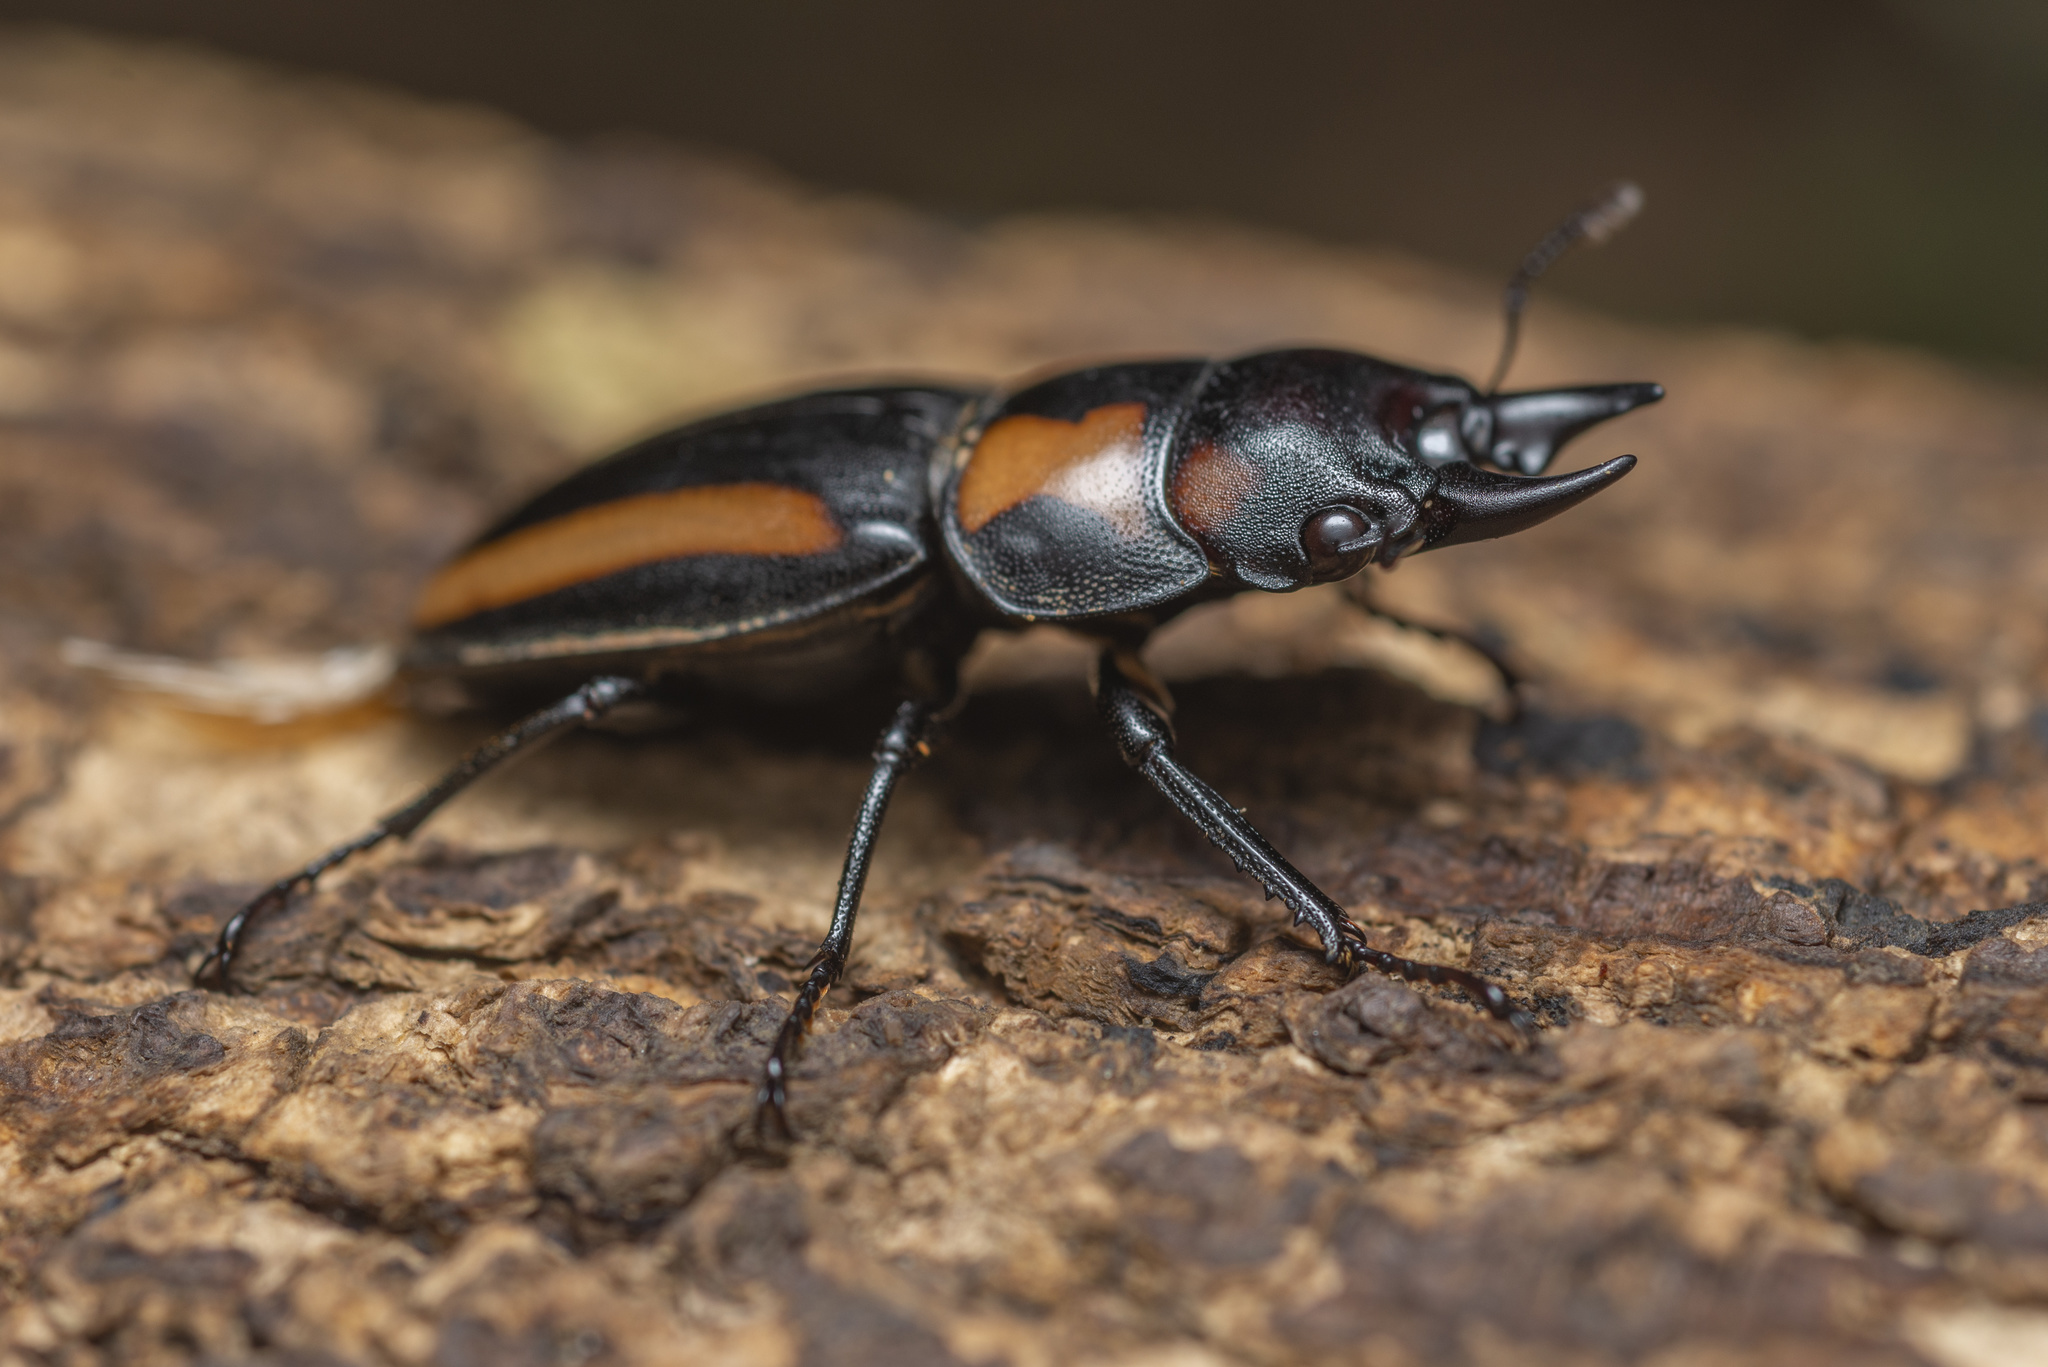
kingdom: Animalia
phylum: Arthropoda
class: Insecta
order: Coleoptera
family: Lucanidae
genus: Prosopocoilus
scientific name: Prosopocoilus biplagiatus
